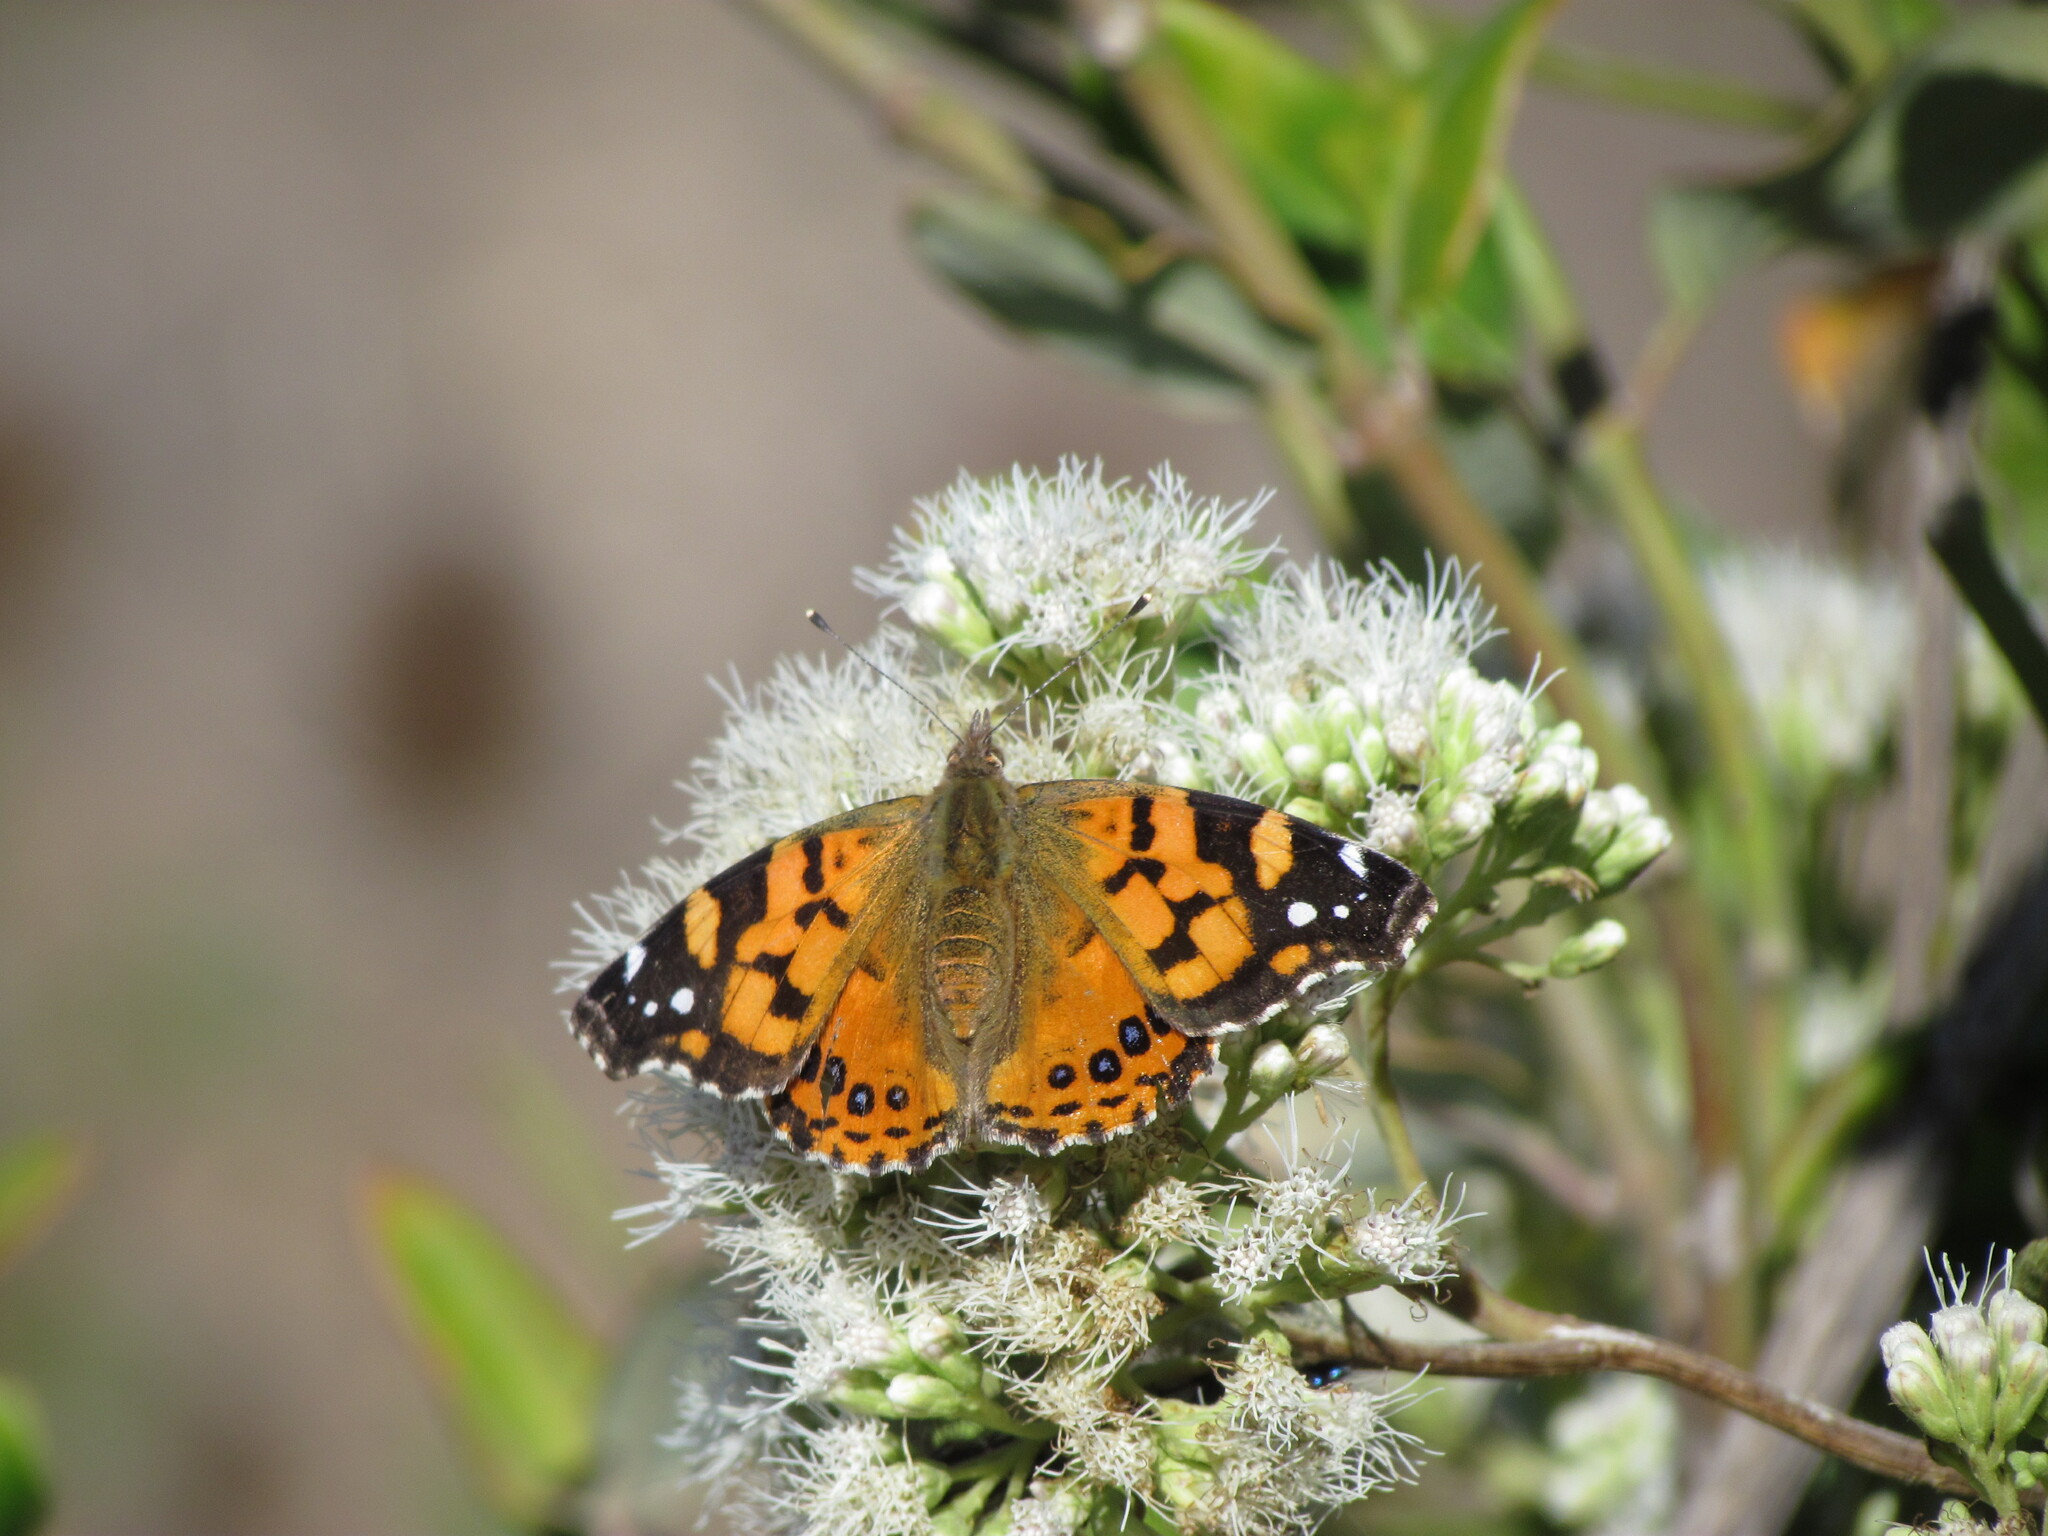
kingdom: Animalia
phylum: Arthropoda
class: Insecta
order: Lepidoptera
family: Nymphalidae
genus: Vanessa
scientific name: Vanessa carye
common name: Subtropical lady
